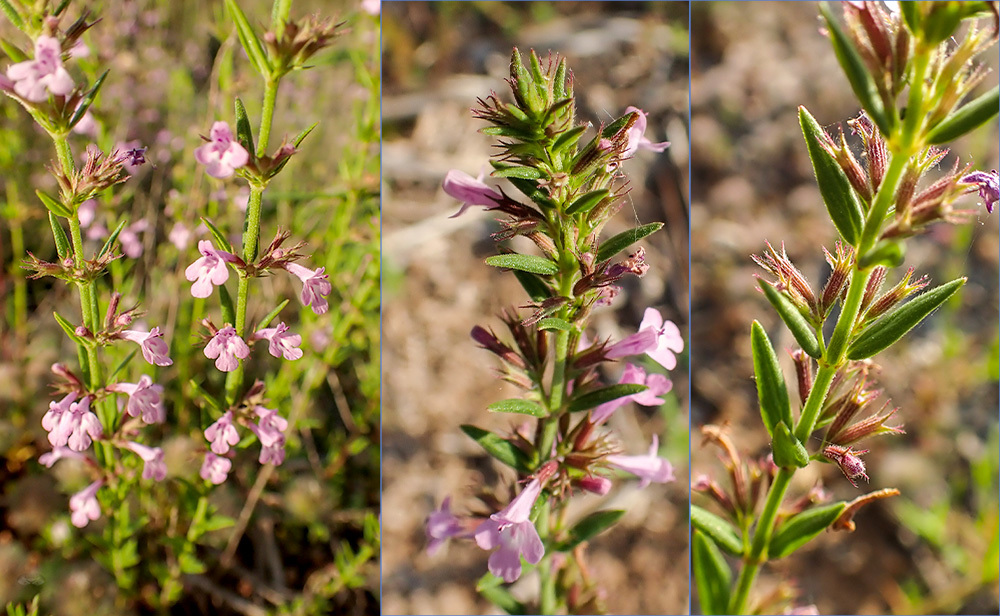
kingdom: Plantae
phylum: Tracheophyta
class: Magnoliopsida
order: Lamiales
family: Lamiaceae
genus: Micromeria
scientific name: Micromeria graeca
